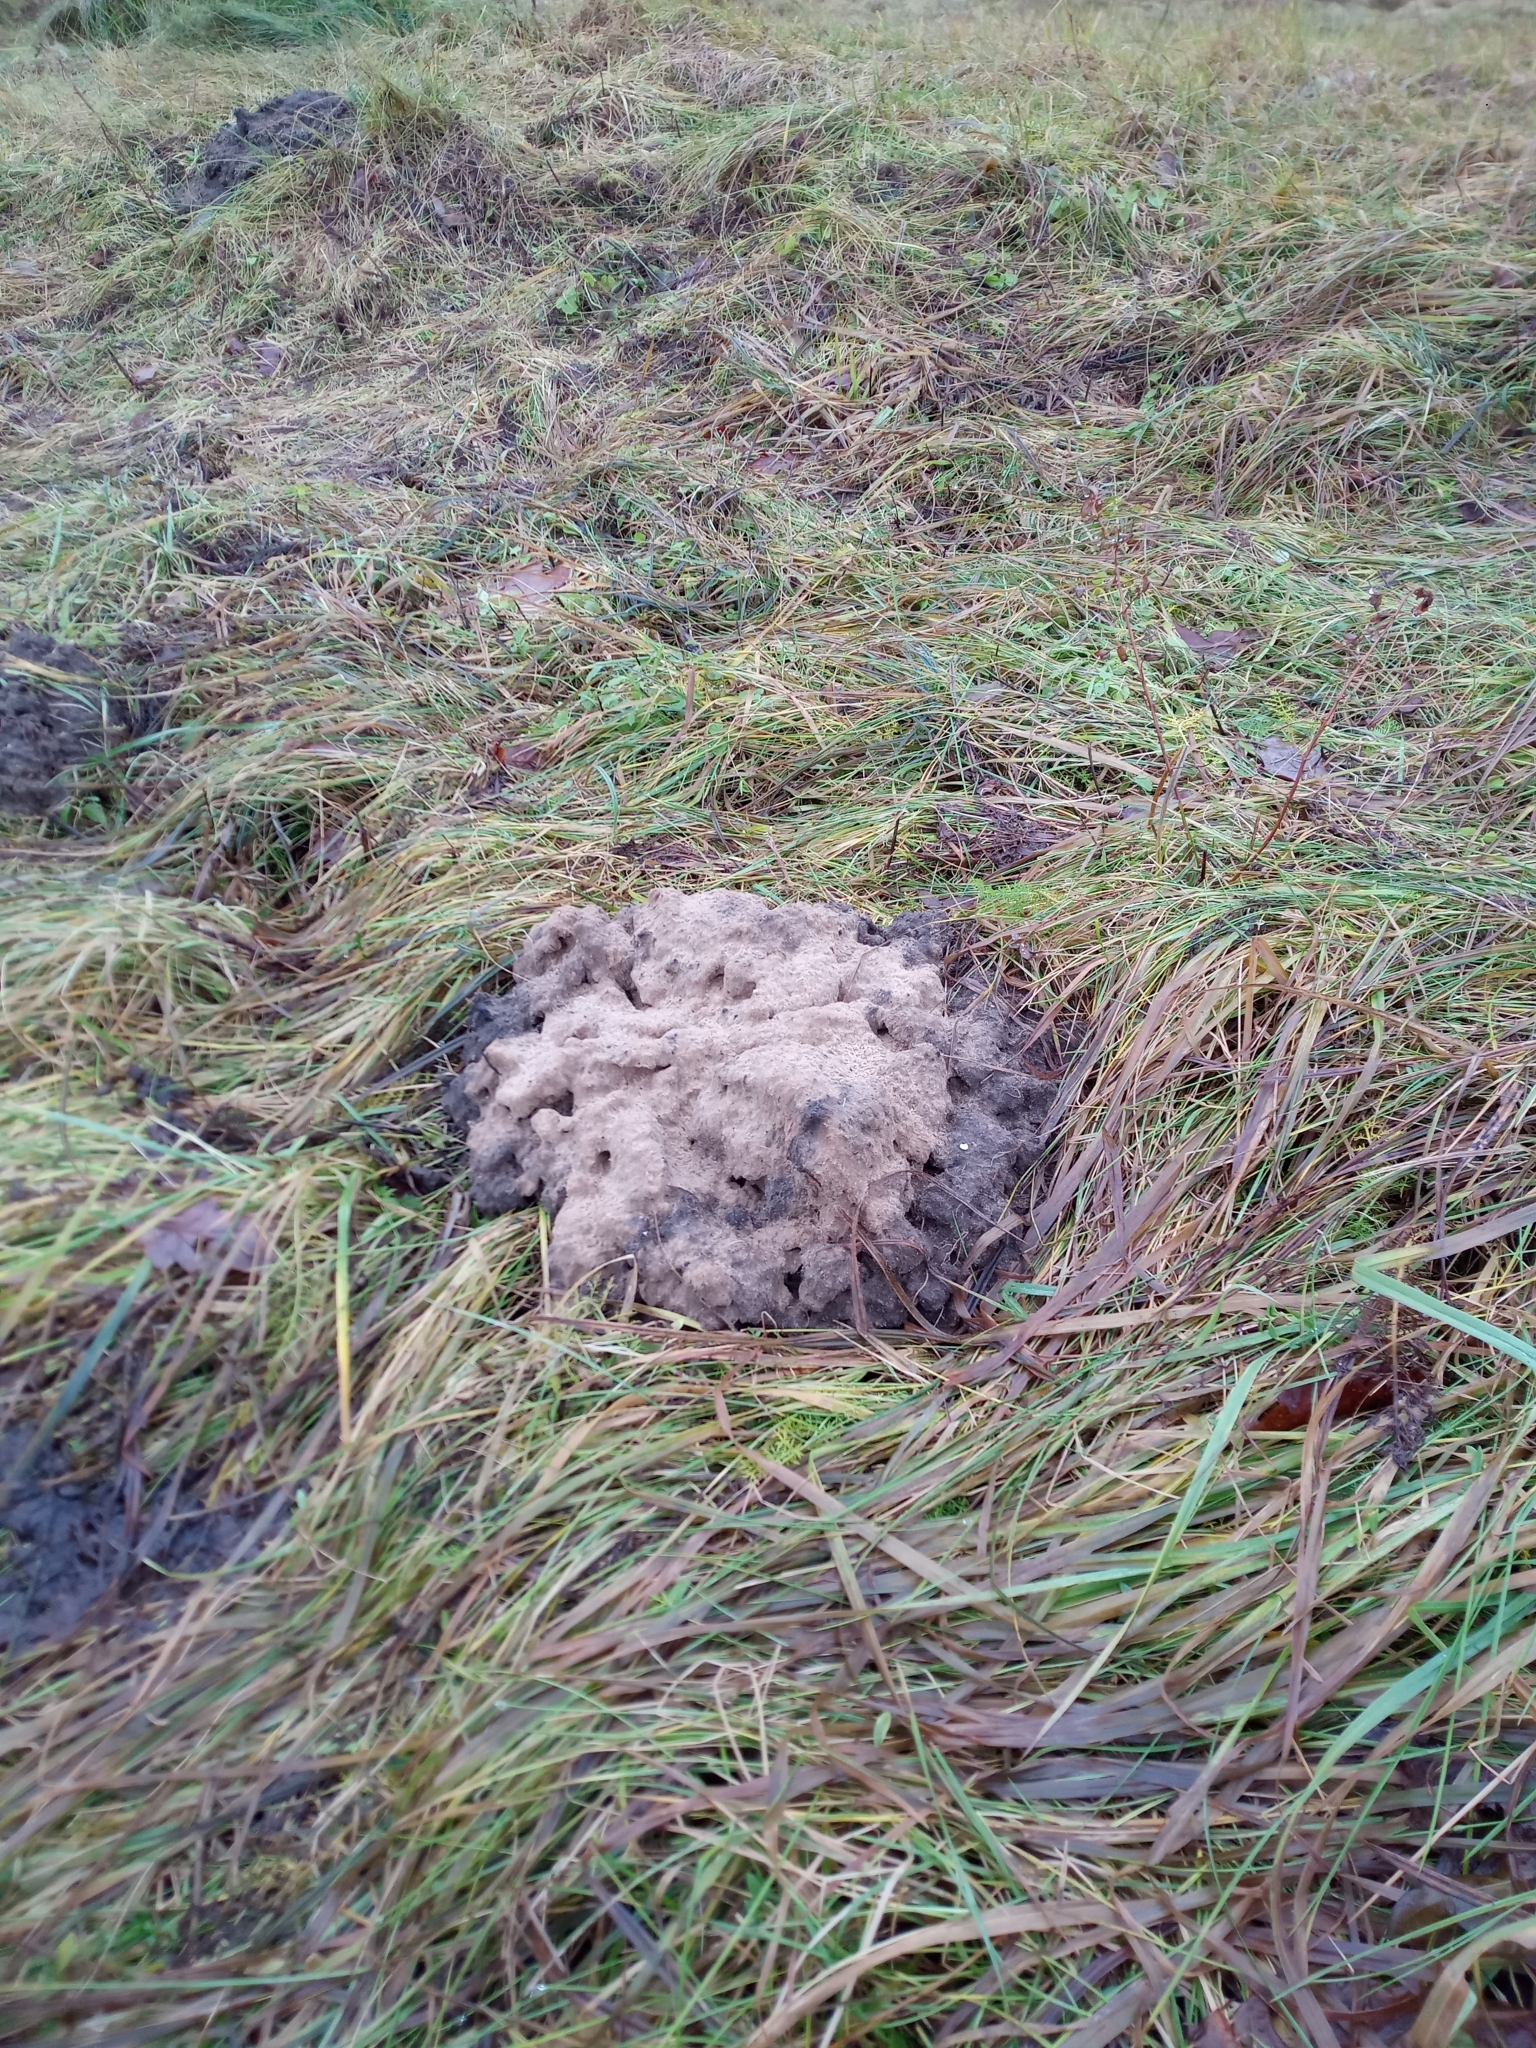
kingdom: Animalia
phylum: Chordata
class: Mammalia
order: Soricomorpha
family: Talpidae
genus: Talpa
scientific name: Talpa europaea
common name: European mole
